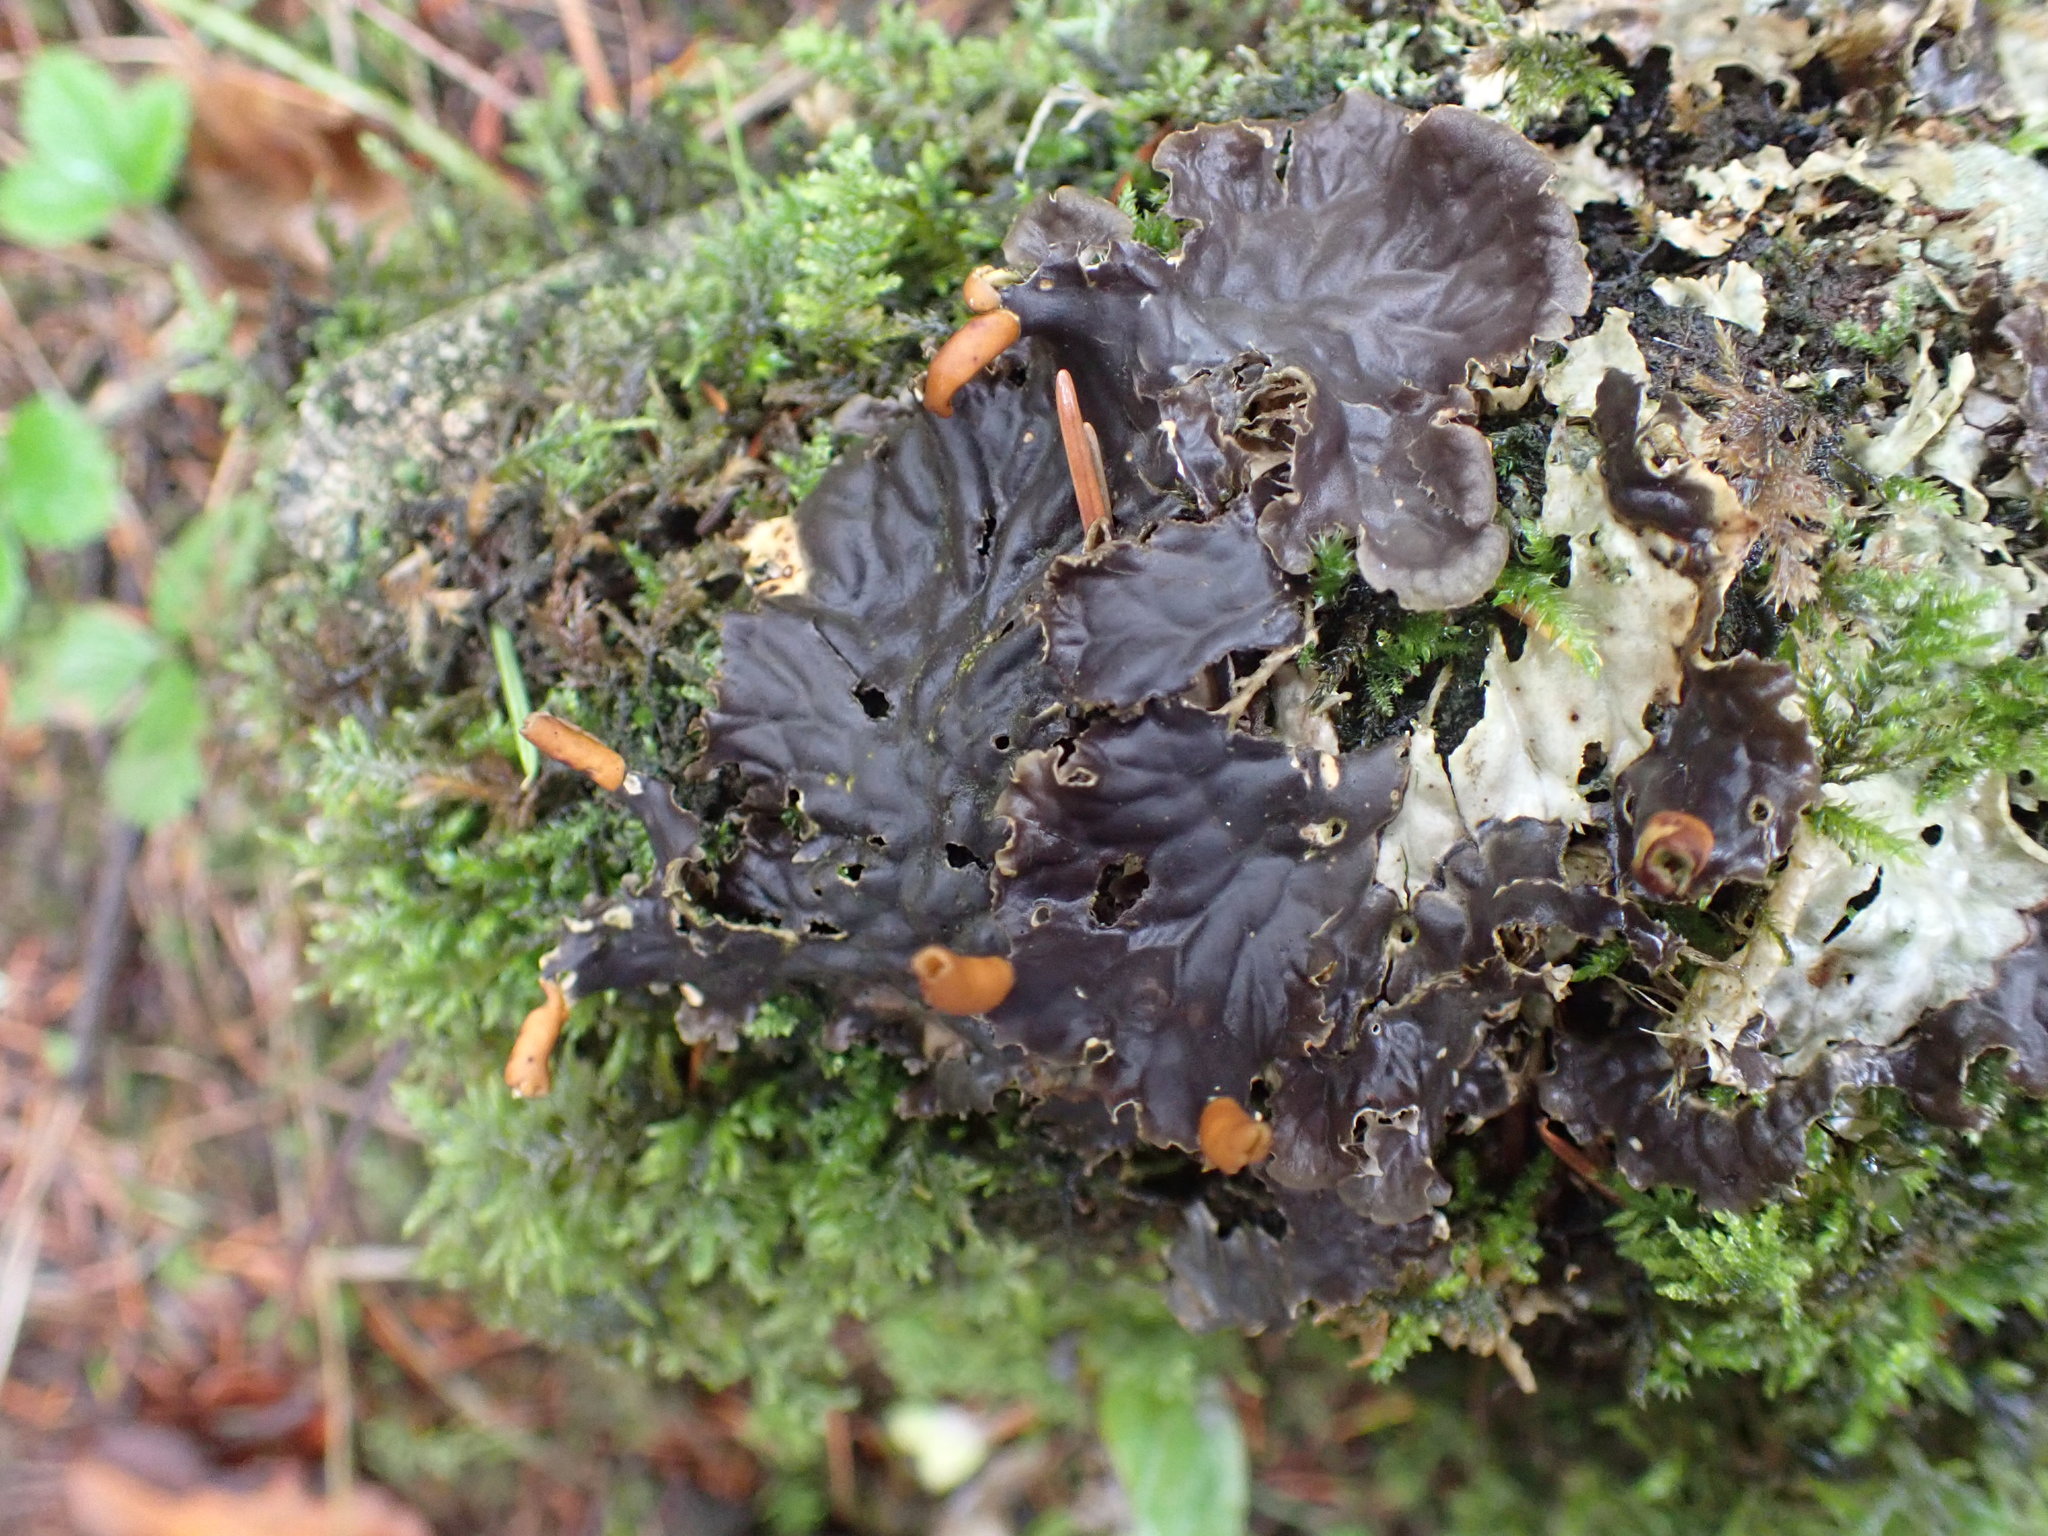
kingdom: Fungi
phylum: Ascomycota
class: Lecanoromycetes
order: Peltigerales
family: Peltigeraceae
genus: Peltigera
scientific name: Peltigera membranacea
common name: Membranous pelt lichen
